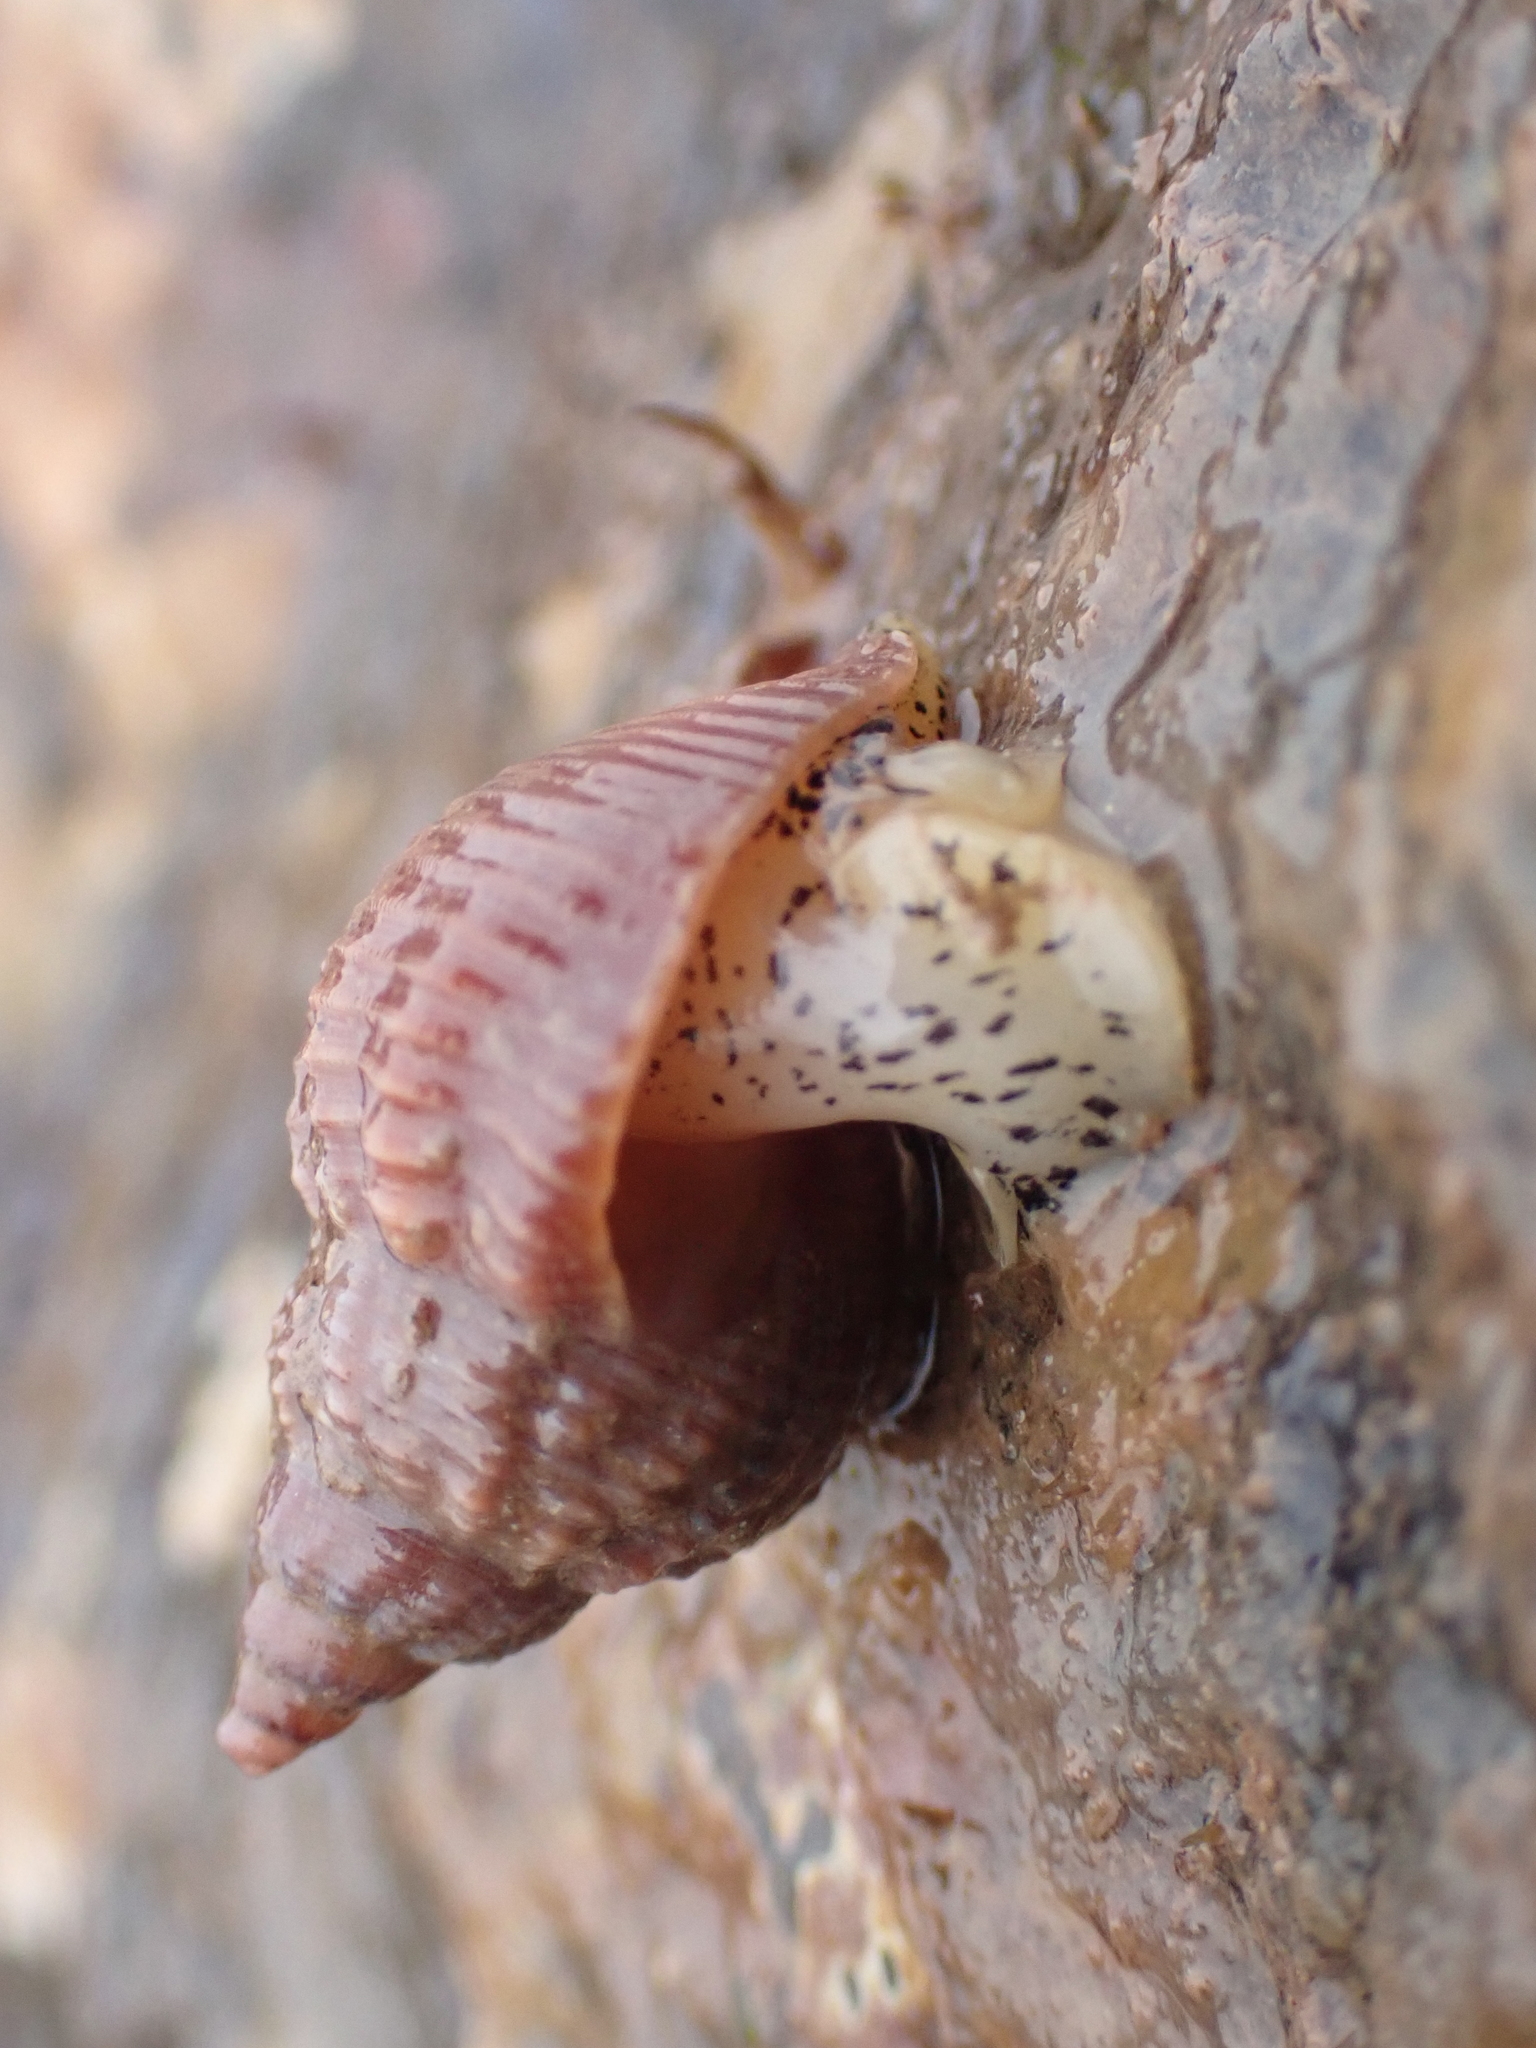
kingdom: Animalia
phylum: Mollusca
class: Gastropoda
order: Neogastropoda
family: Buccinidae
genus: Buccinum
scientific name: Buccinum undatum
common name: Common whelk
